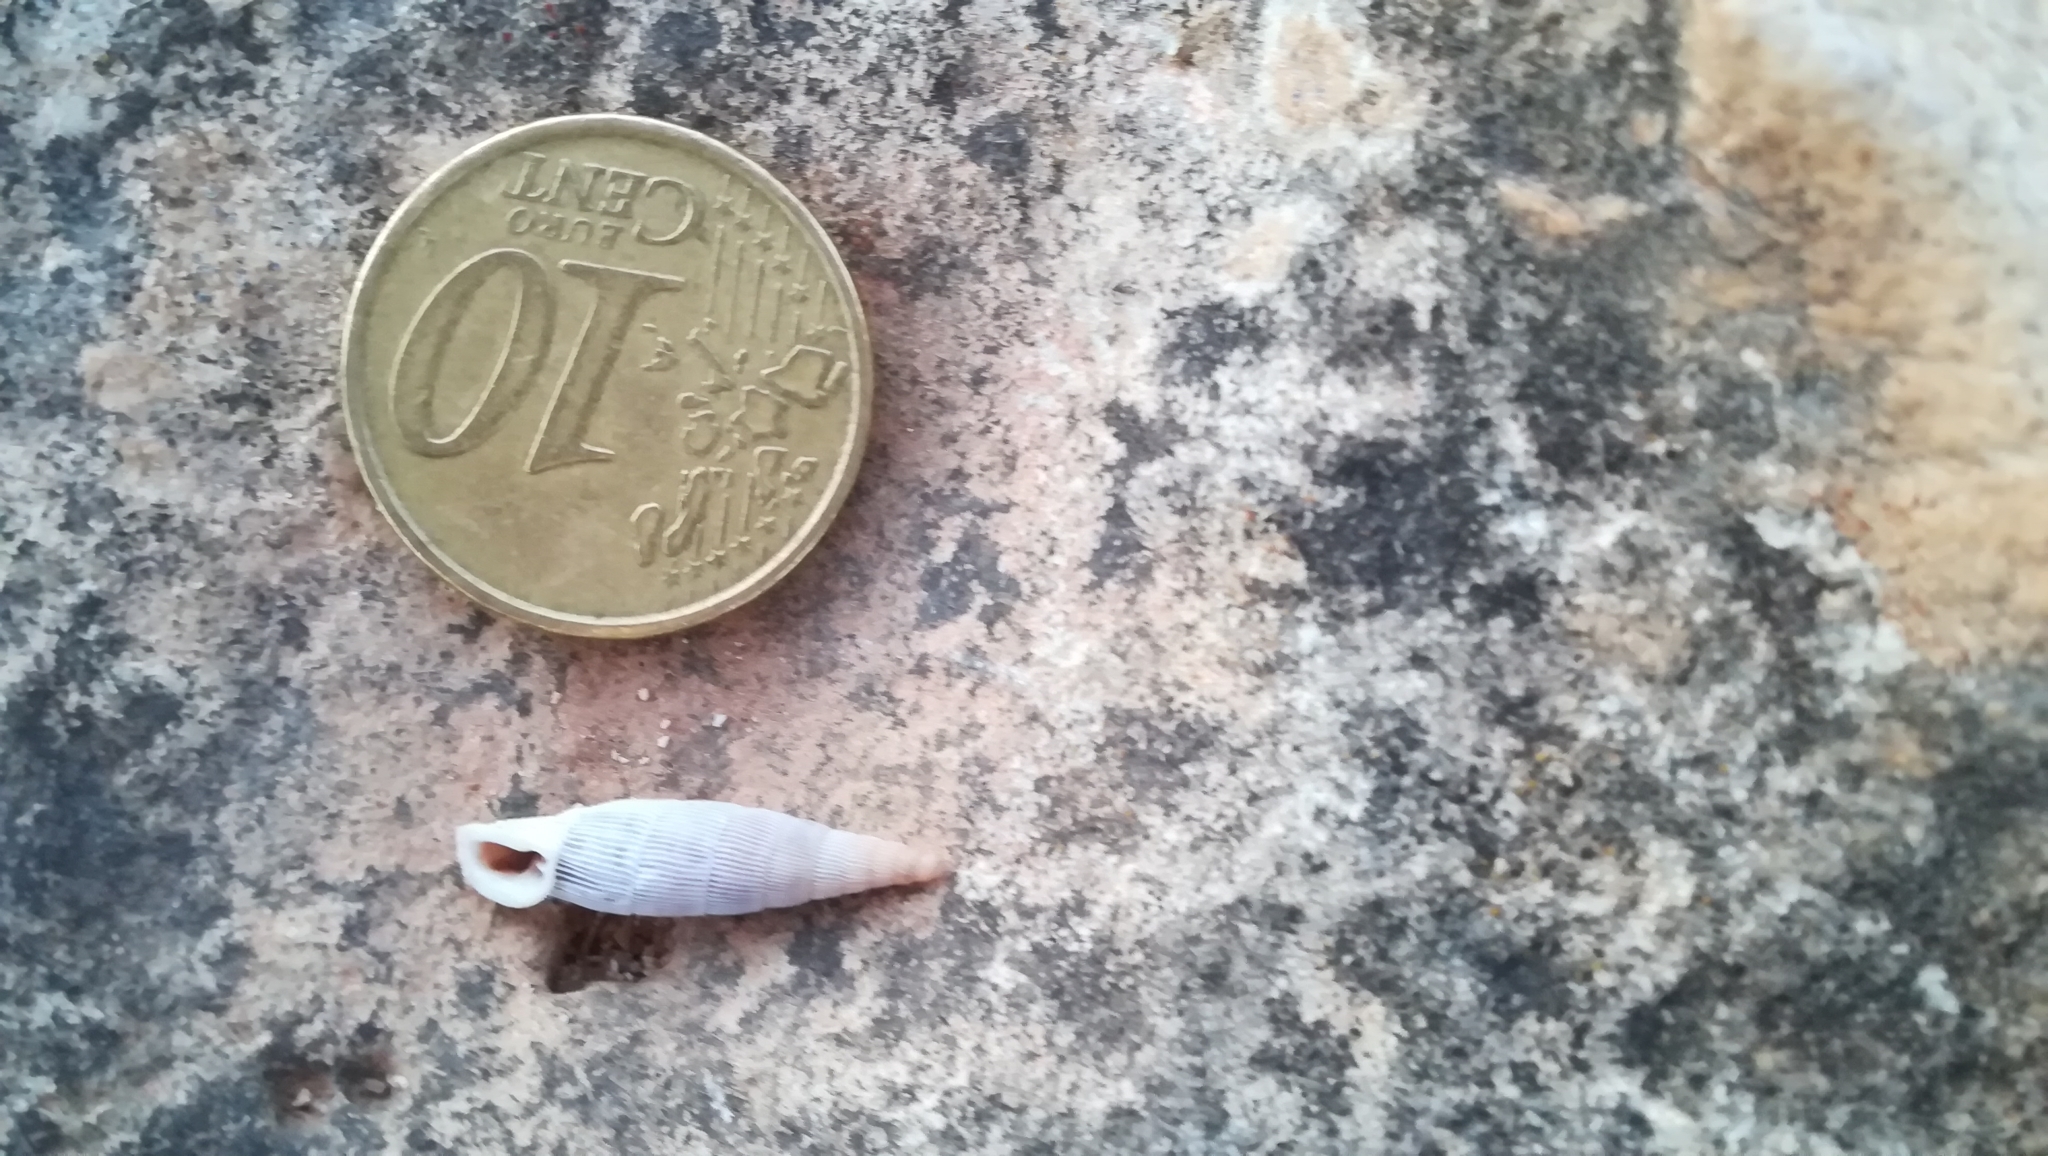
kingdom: Animalia
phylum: Mollusca
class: Gastropoda
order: Stylommatophora
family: Clausiliidae
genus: Lampedusa
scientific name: Lampedusa lopadusae
